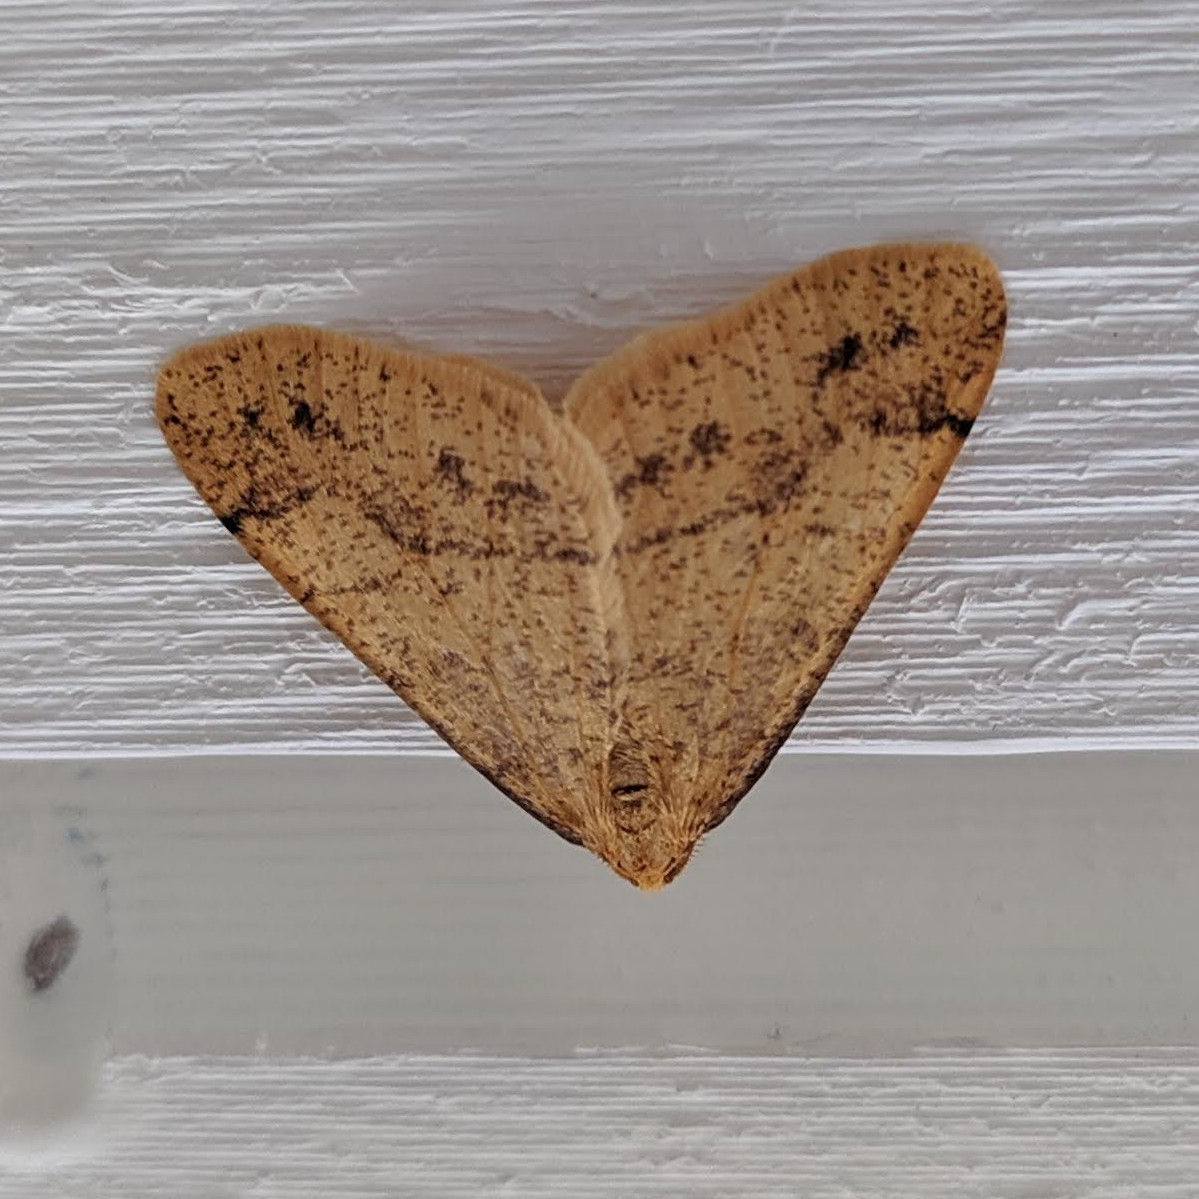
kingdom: Animalia
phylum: Arthropoda
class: Insecta
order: Lepidoptera
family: Geometridae
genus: Agriopis
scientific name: Agriopis aurantiaria
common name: Scarce umber
